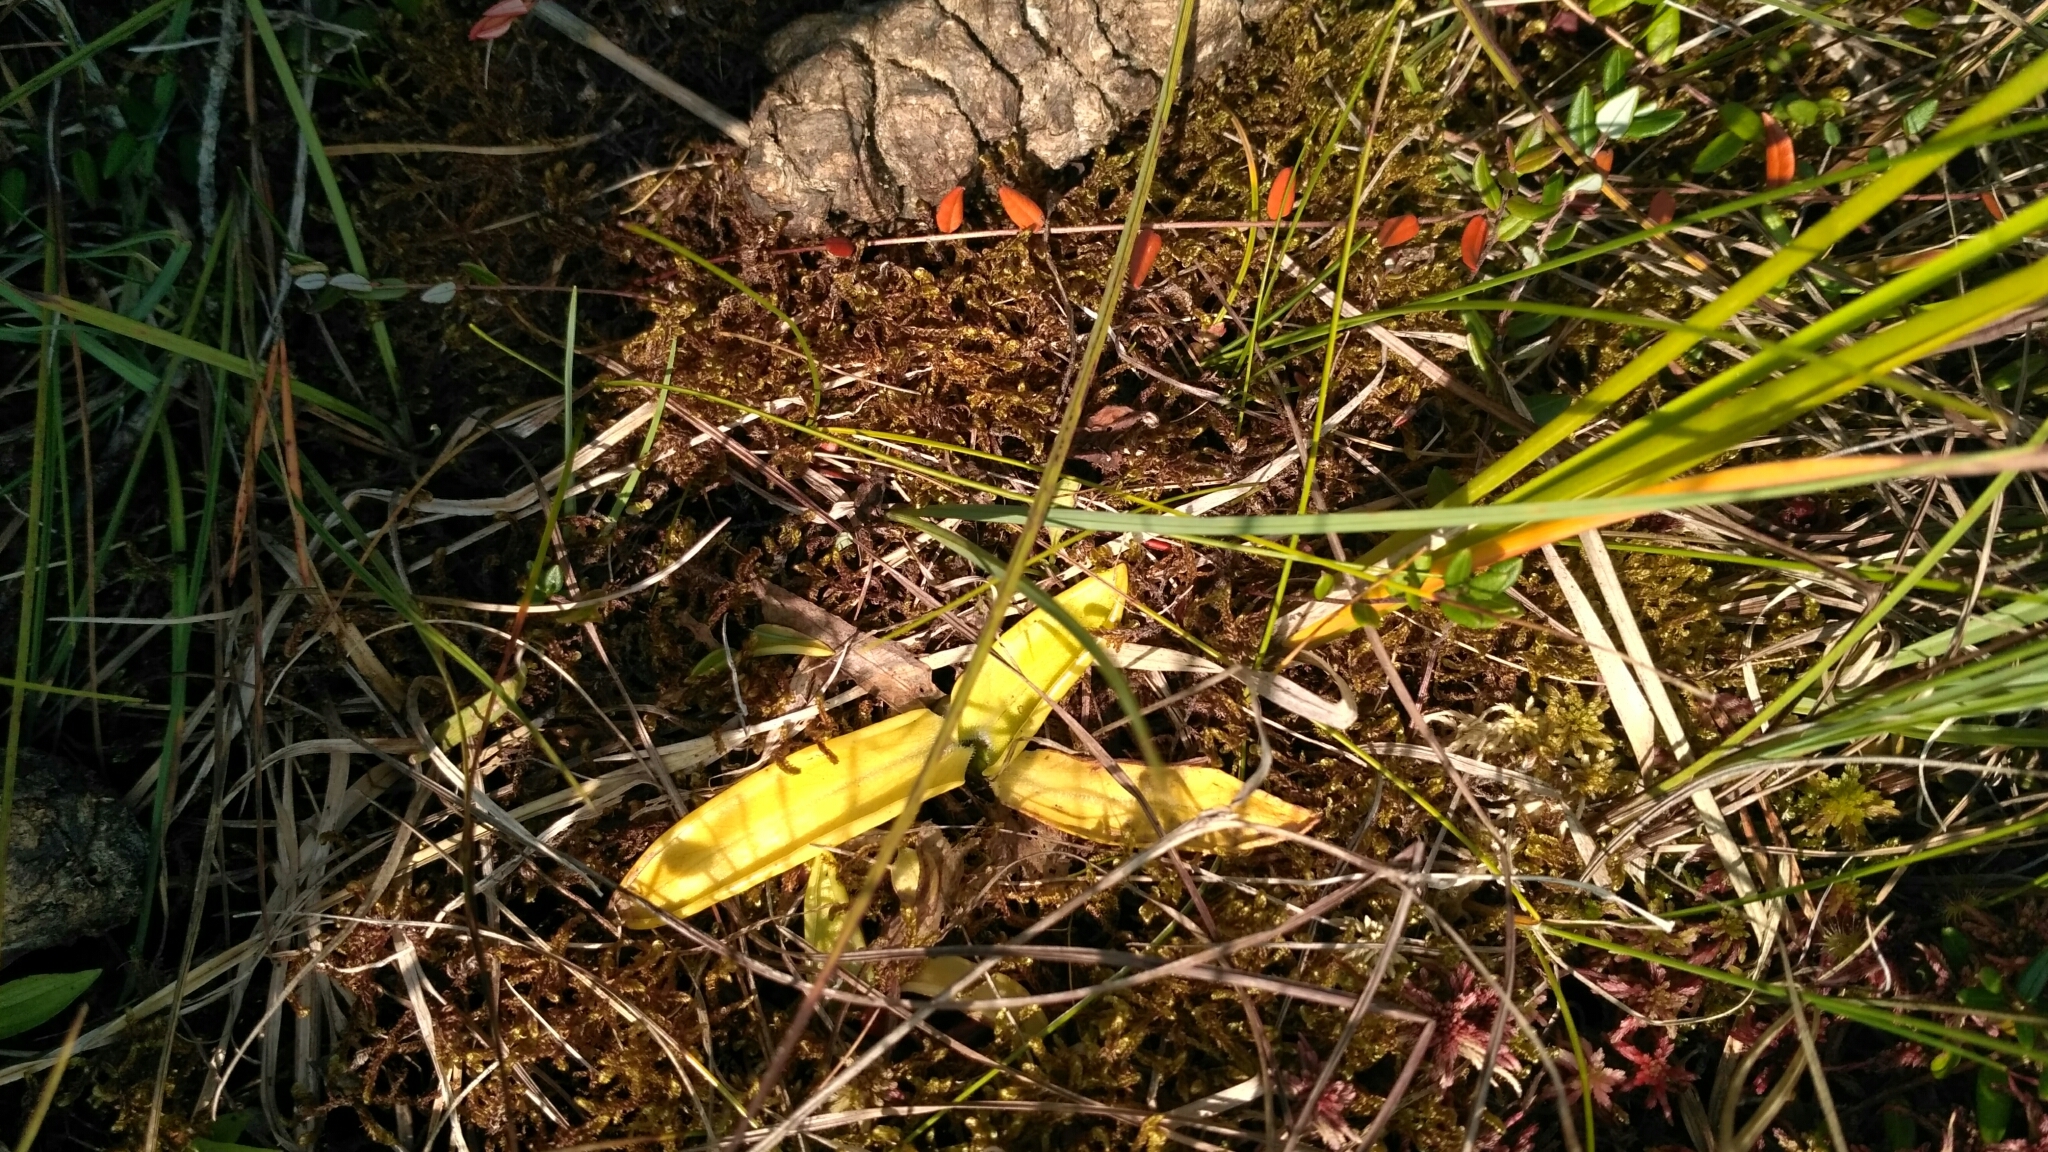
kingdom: Plantae
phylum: Tracheophyta
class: Magnoliopsida
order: Lamiales
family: Lentibulariaceae
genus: Pinguicula
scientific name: Pinguicula vulgaris
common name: Common butterwort
